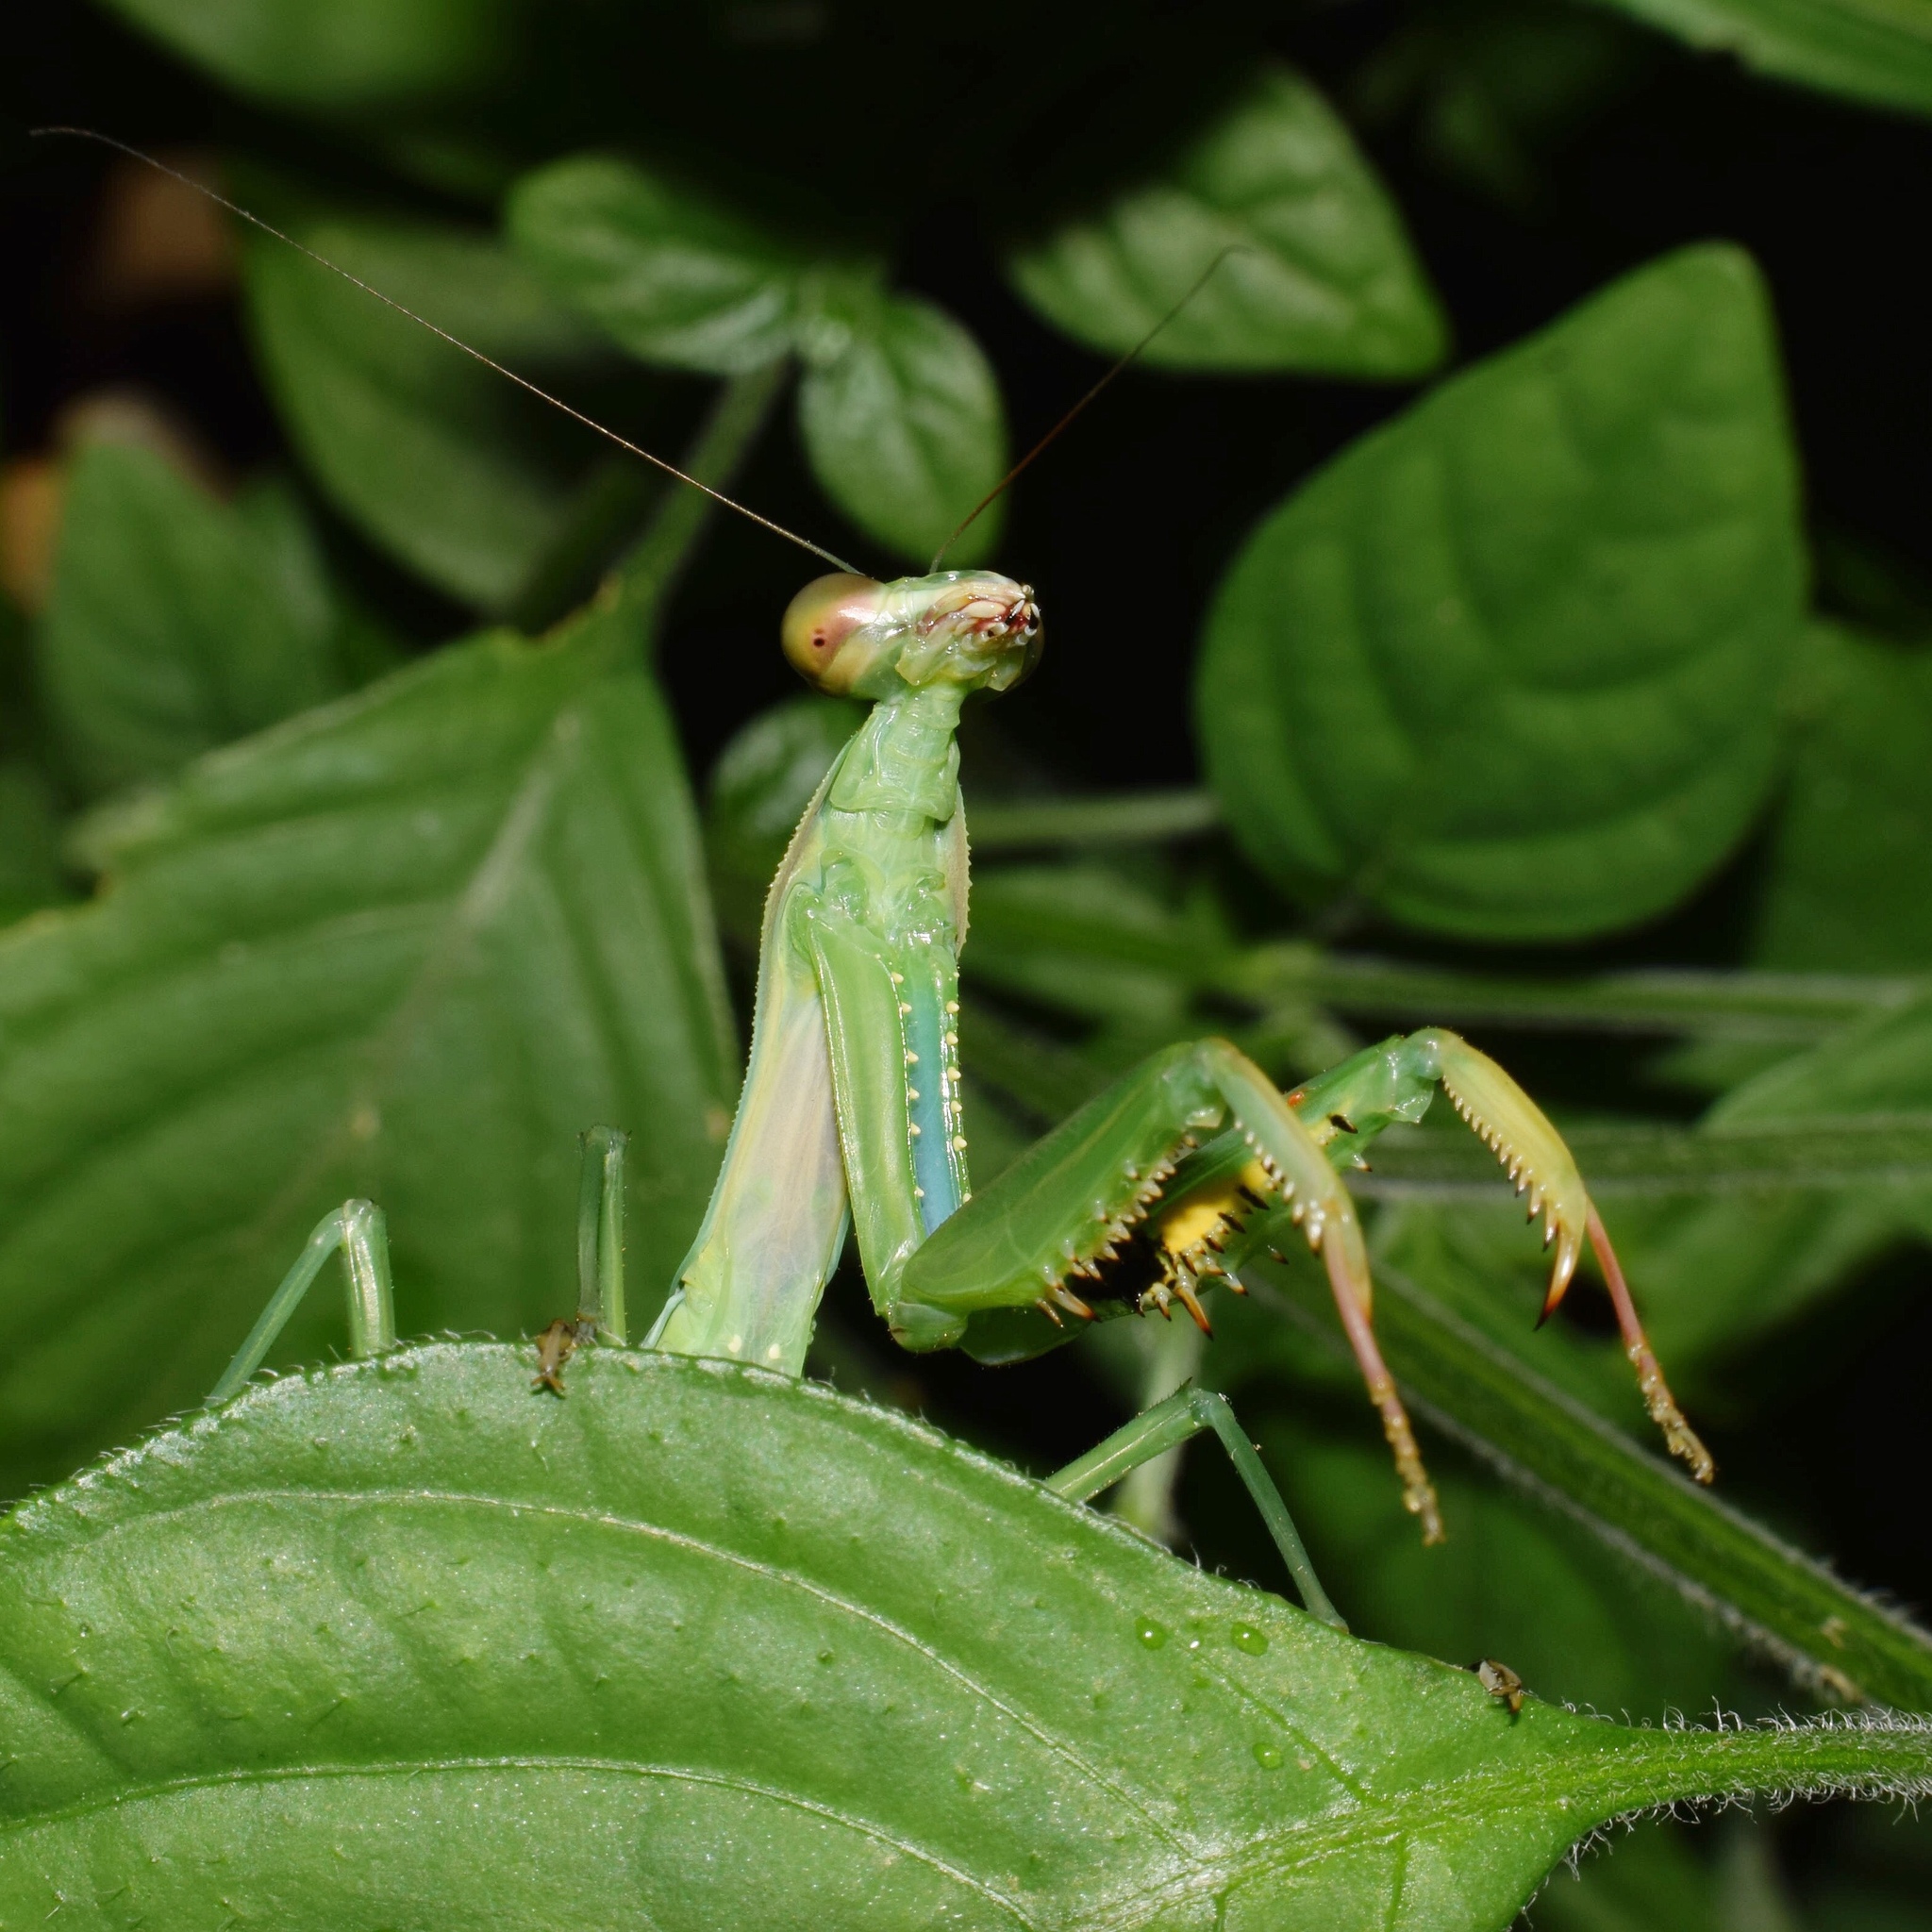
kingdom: Animalia
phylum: Arthropoda
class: Insecta
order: Mantodea
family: Mantidae
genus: Polyspilota
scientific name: Polyspilota aeruginosa
